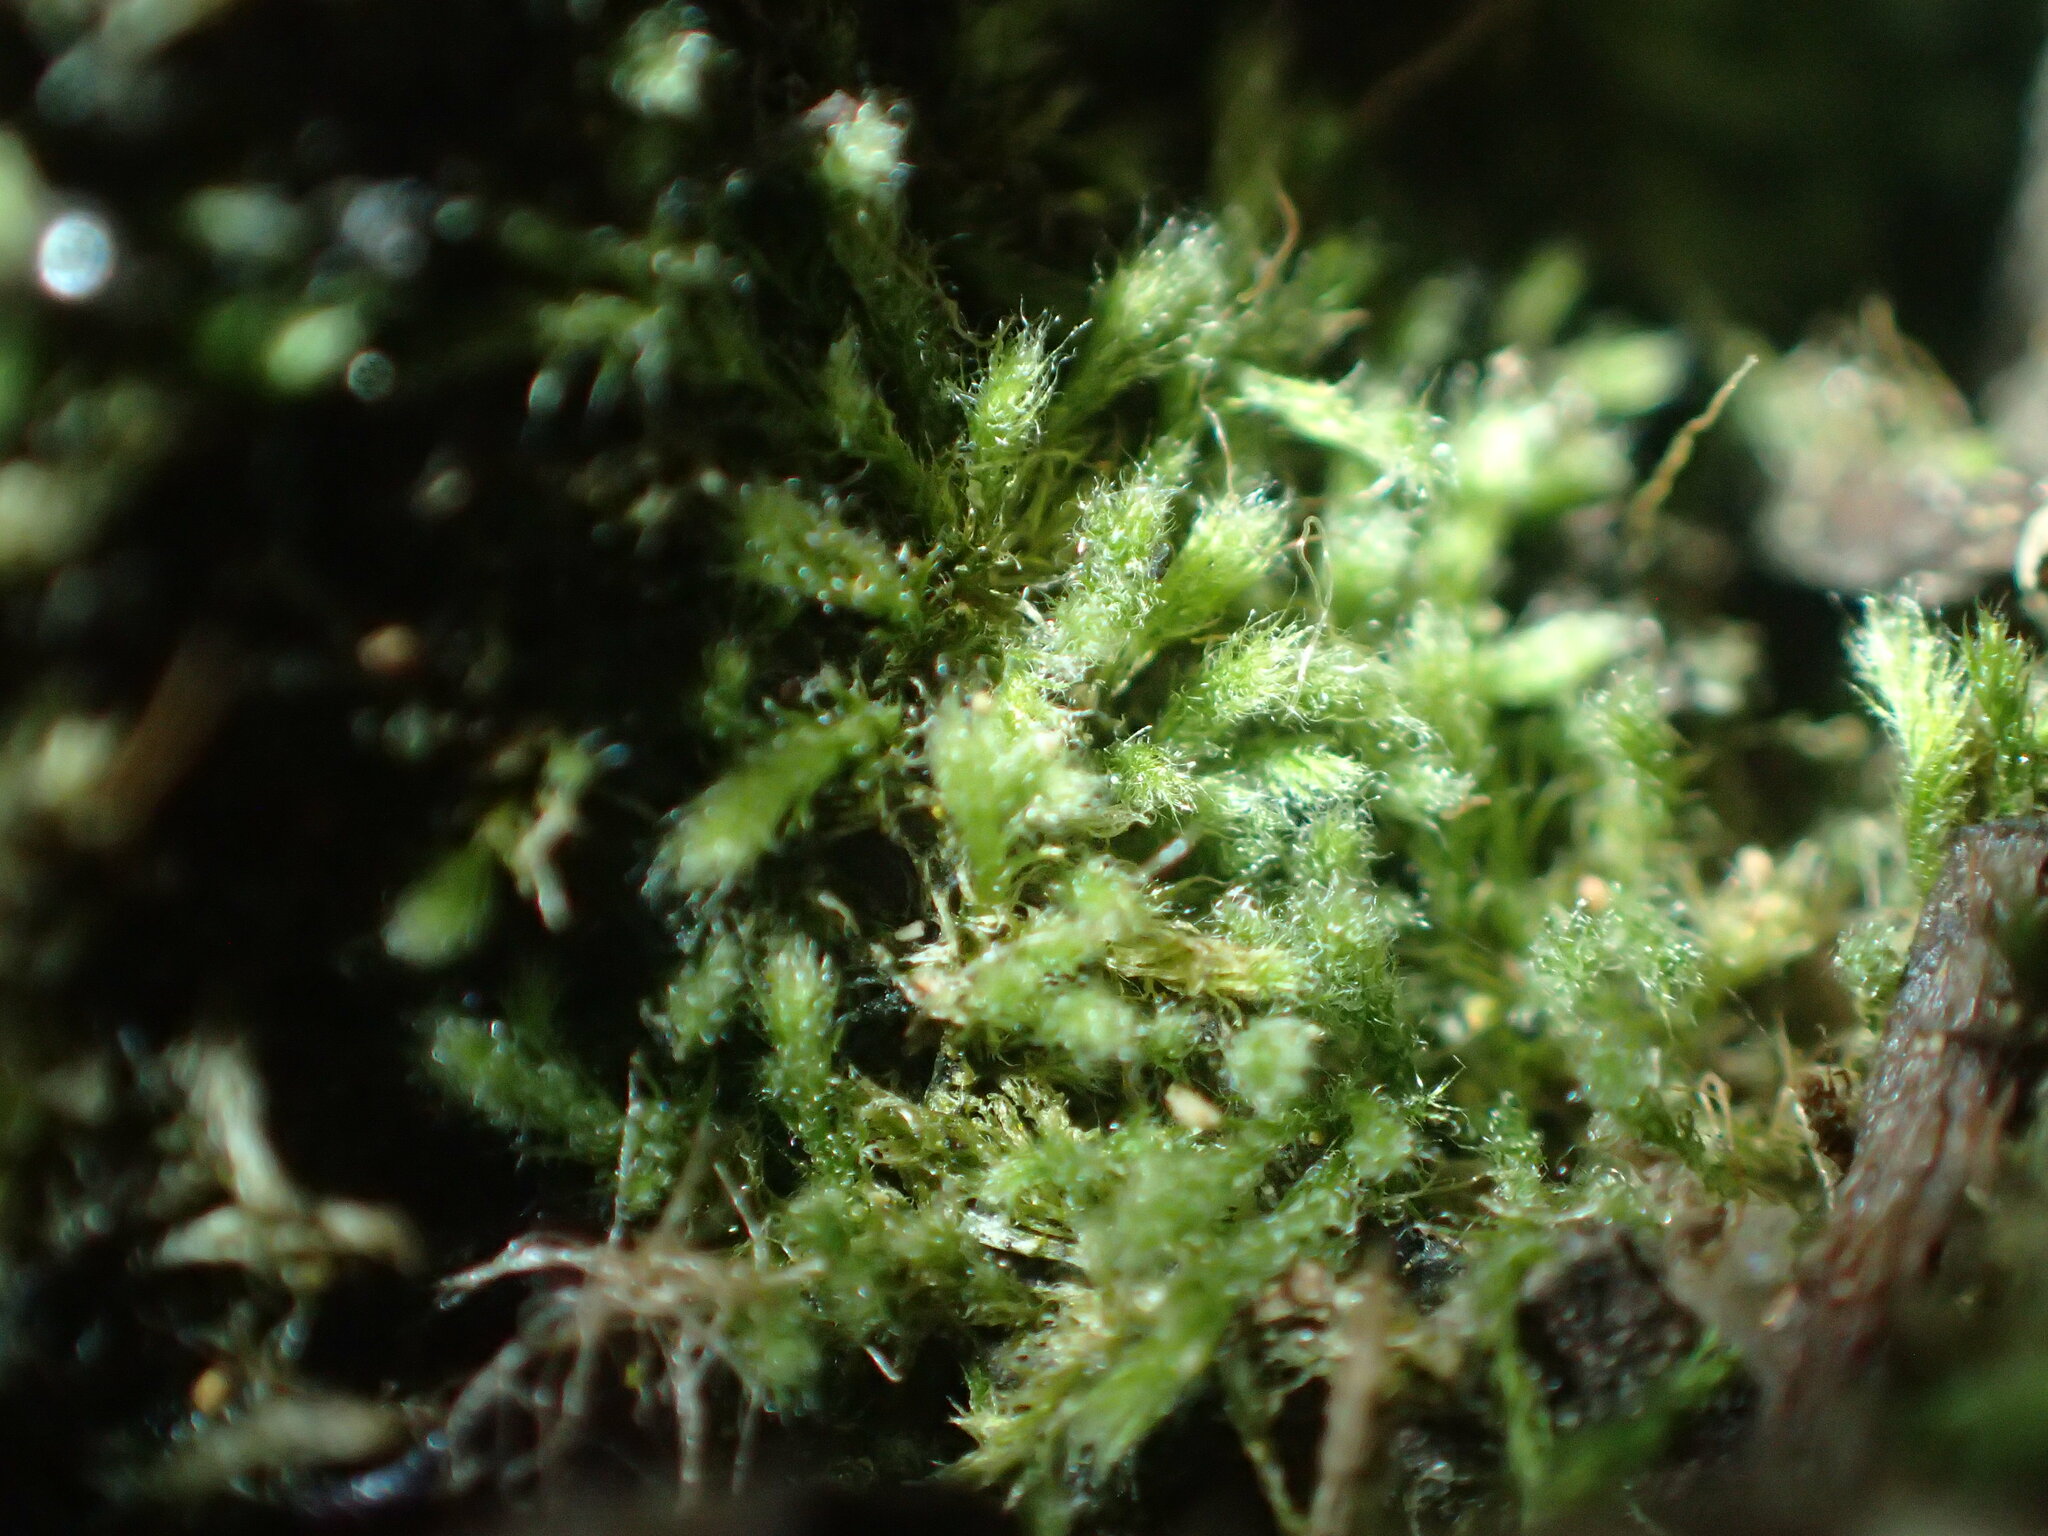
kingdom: Plantae
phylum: Bryophyta
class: Bryopsida
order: Hypnales
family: Fabroniaceae
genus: Fabronia
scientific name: Fabronia hampeana
